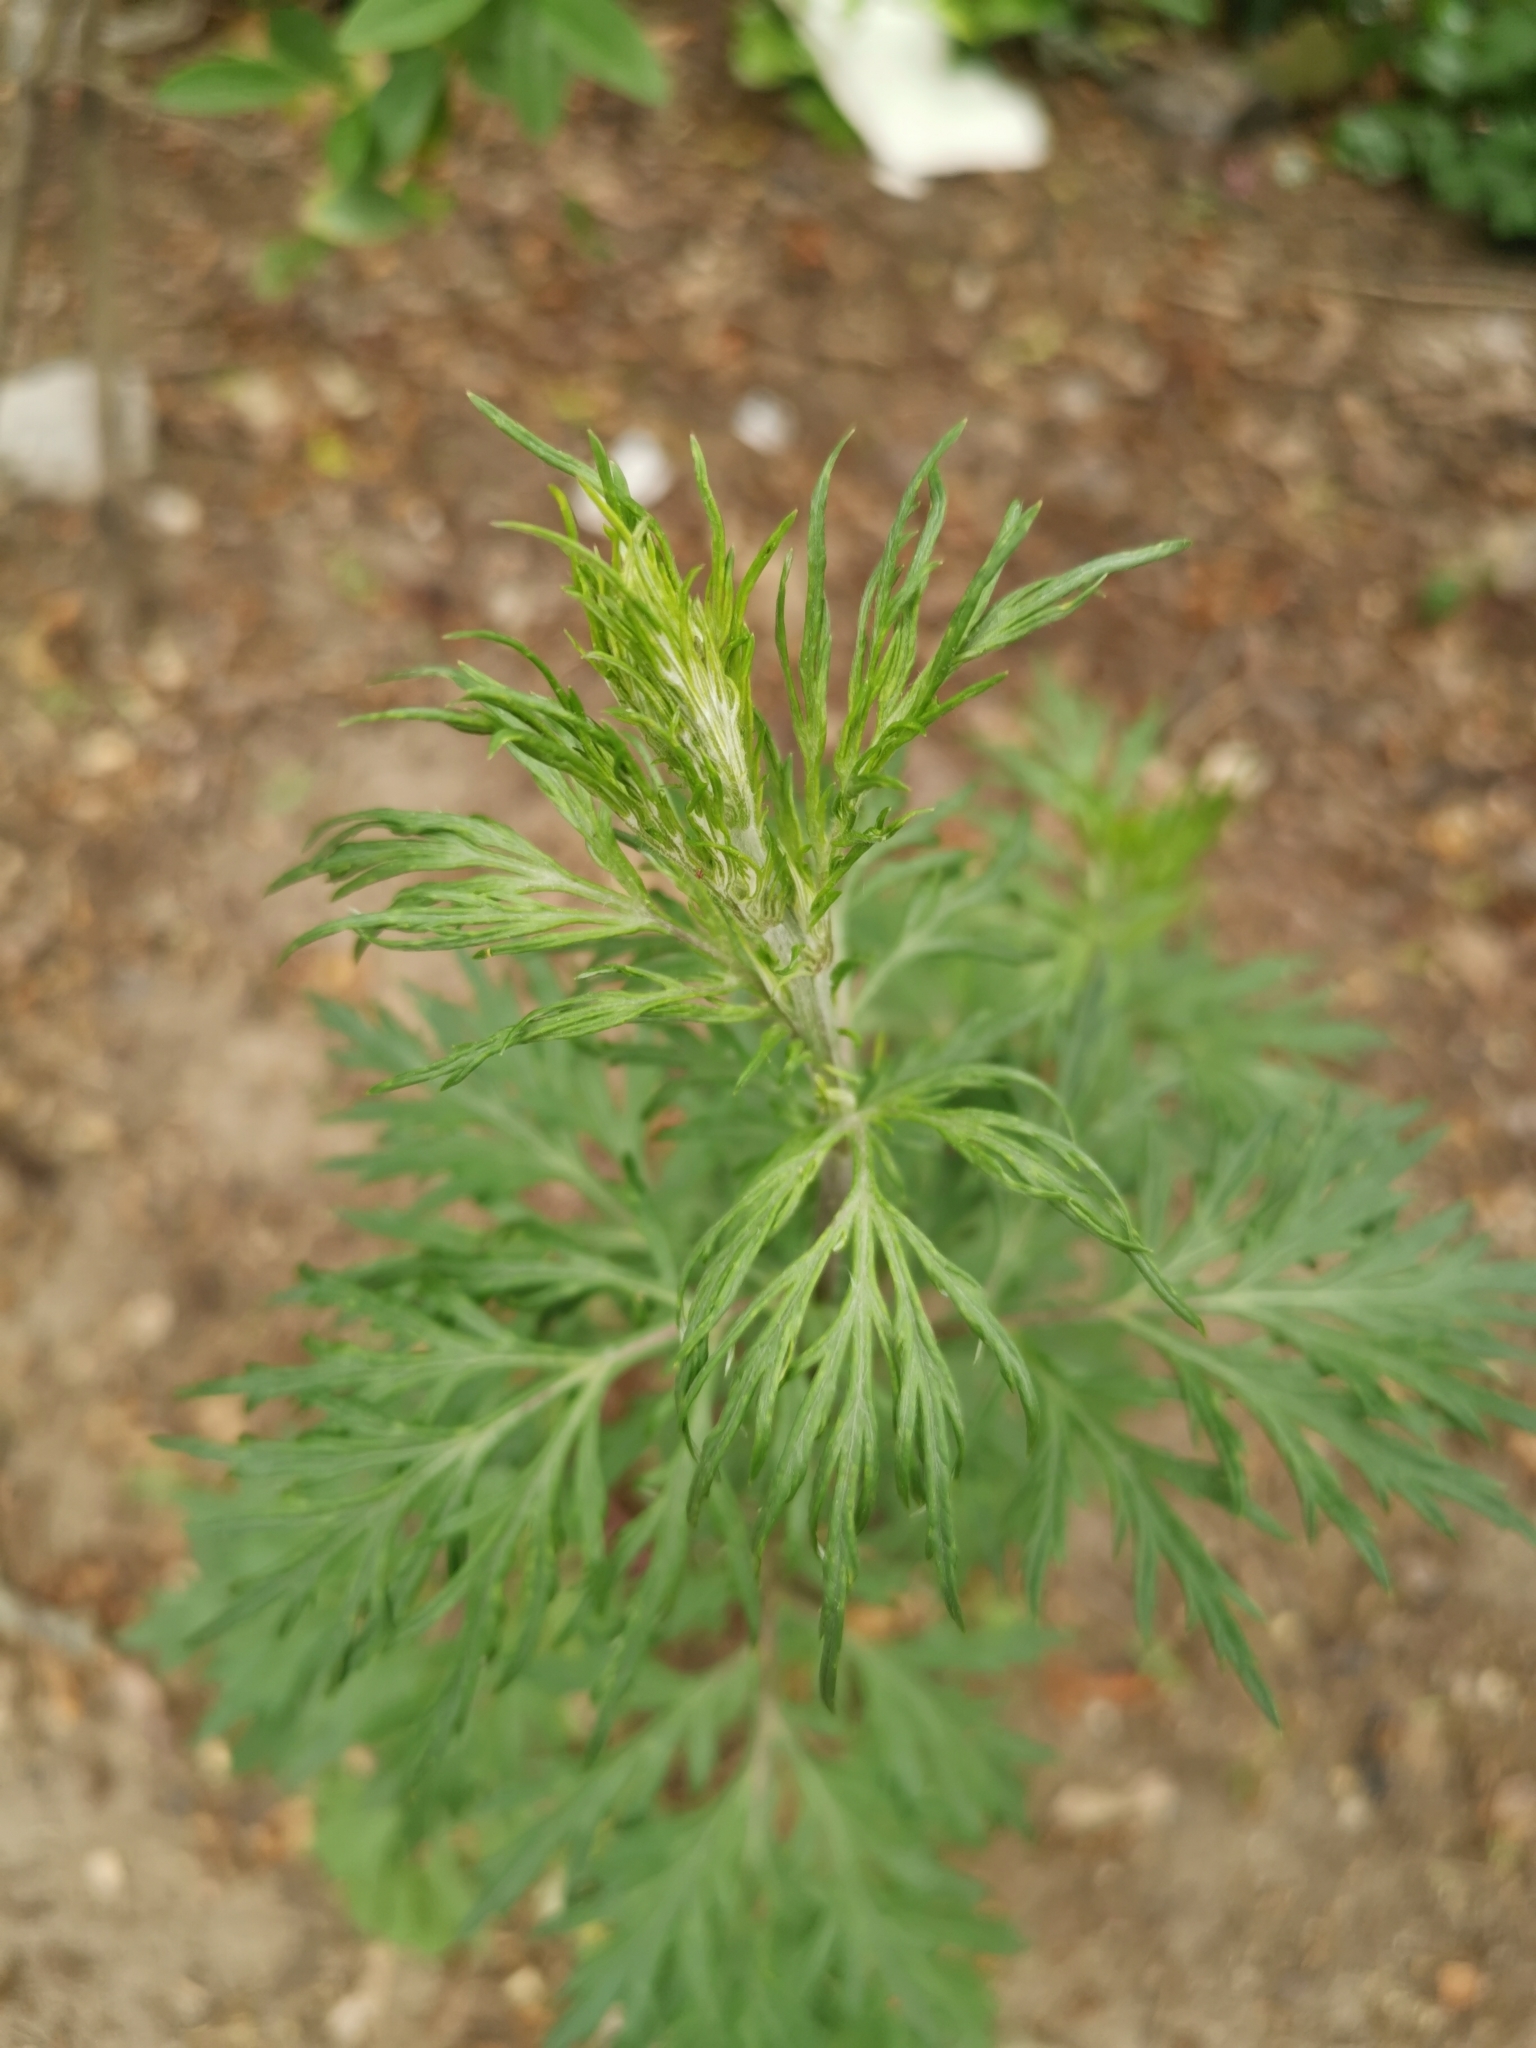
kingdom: Plantae
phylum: Tracheophyta
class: Magnoliopsida
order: Asterales
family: Asteraceae
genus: Artemisia
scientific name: Artemisia vulgaris
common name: Mugwort
